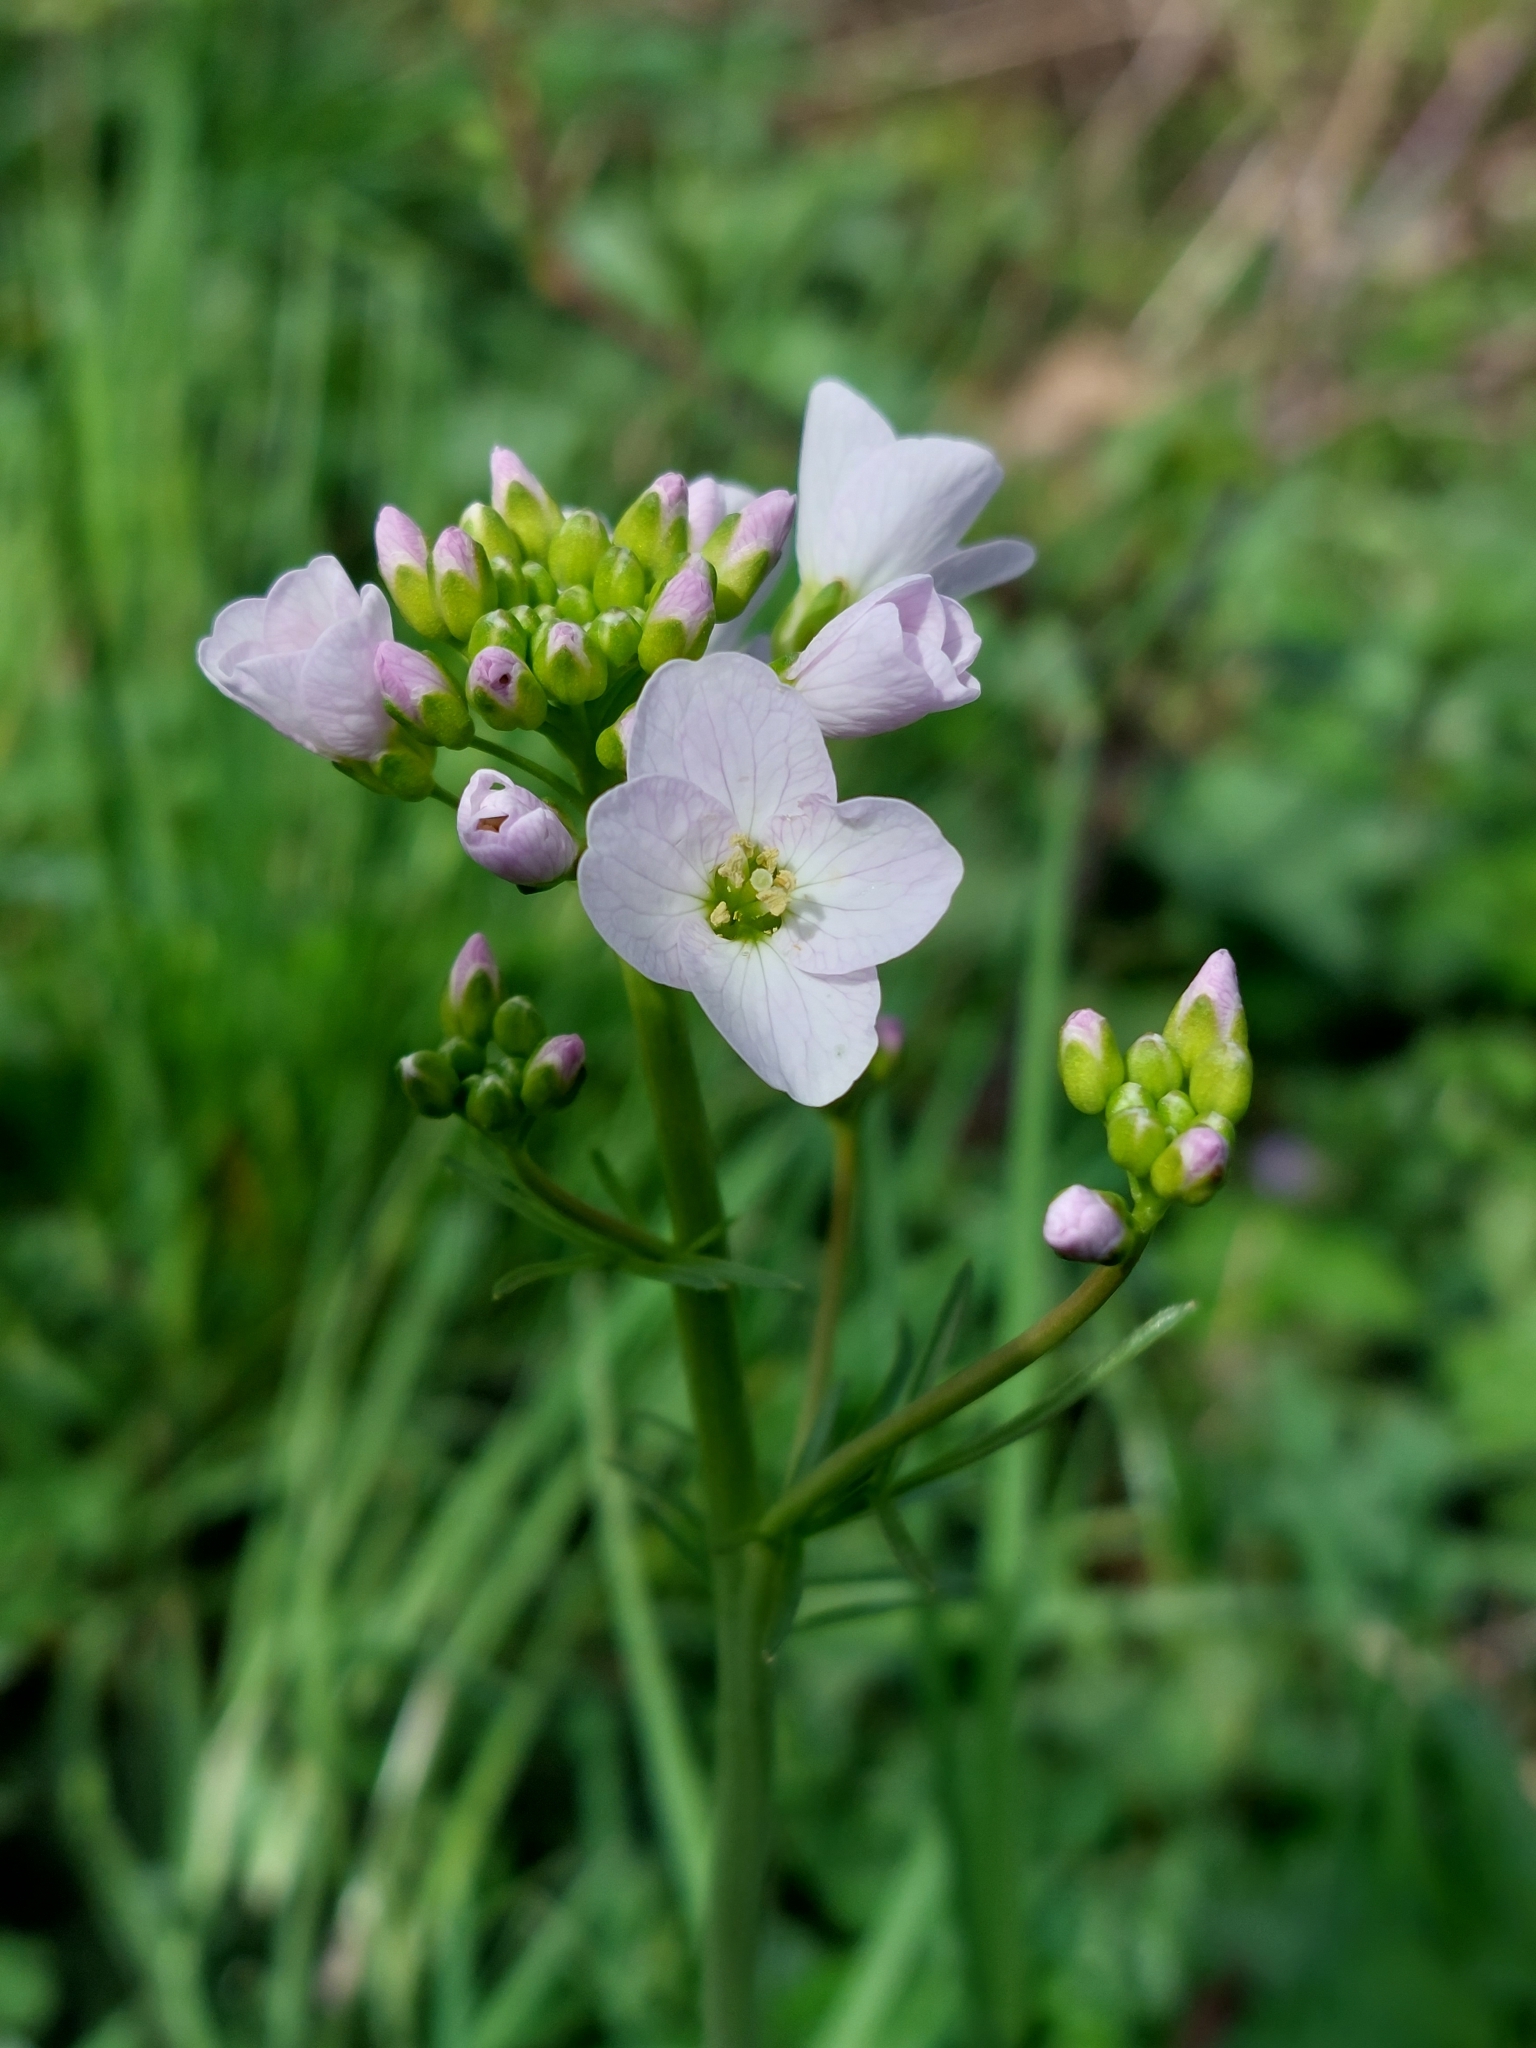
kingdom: Plantae
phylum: Tracheophyta
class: Magnoliopsida
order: Brassicales
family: Brassicaceae
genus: Cardamine
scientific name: Cardamine pratensis
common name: Cuckoo flower
